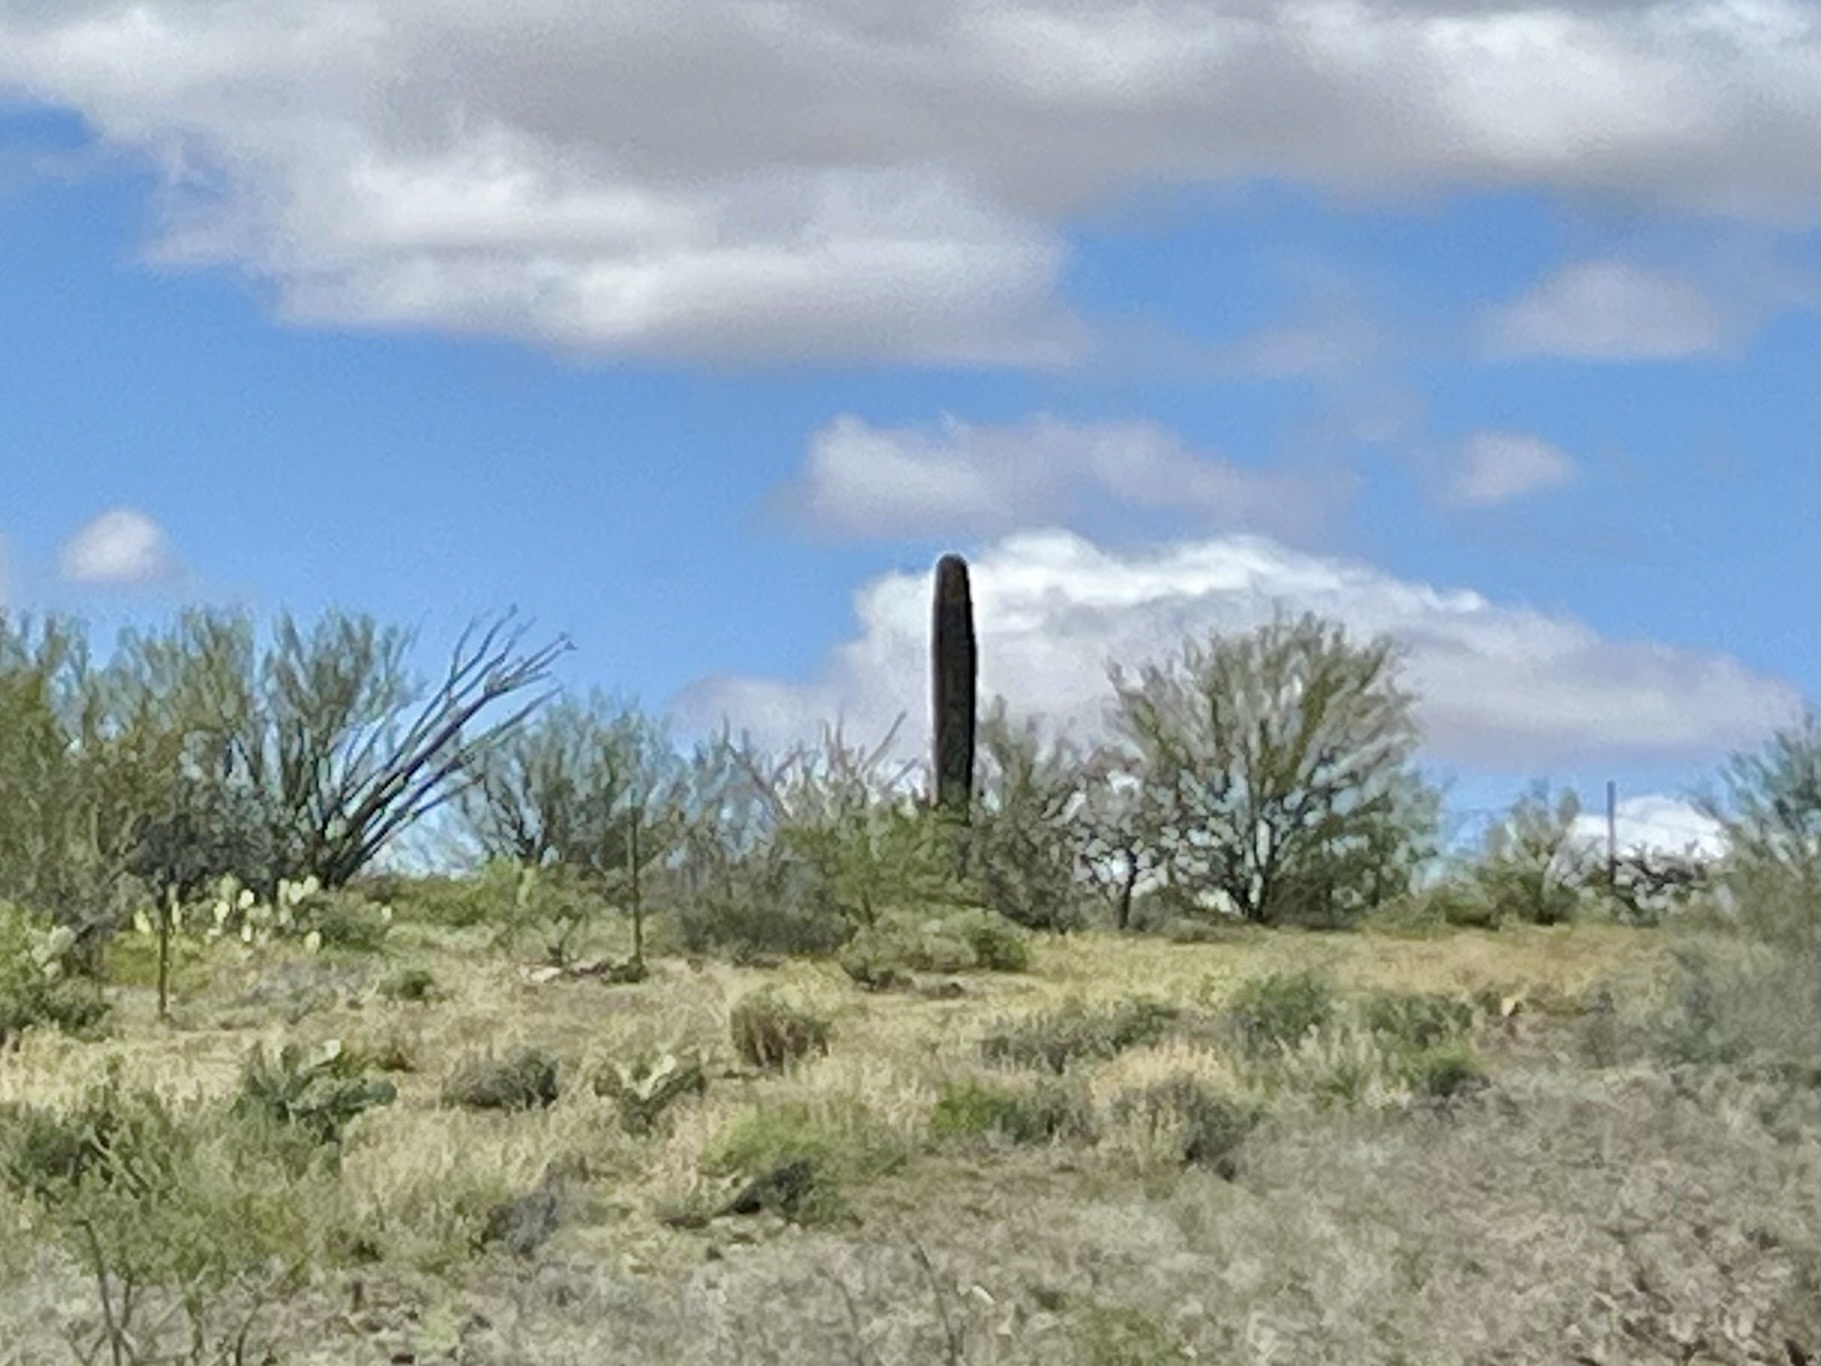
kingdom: Plantae
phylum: Tracheophyta
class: Magnoliopsida
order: Caryophyllales
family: Cactaceae
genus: Carnegiea
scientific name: Carnegiea gigantea
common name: Saguaro
